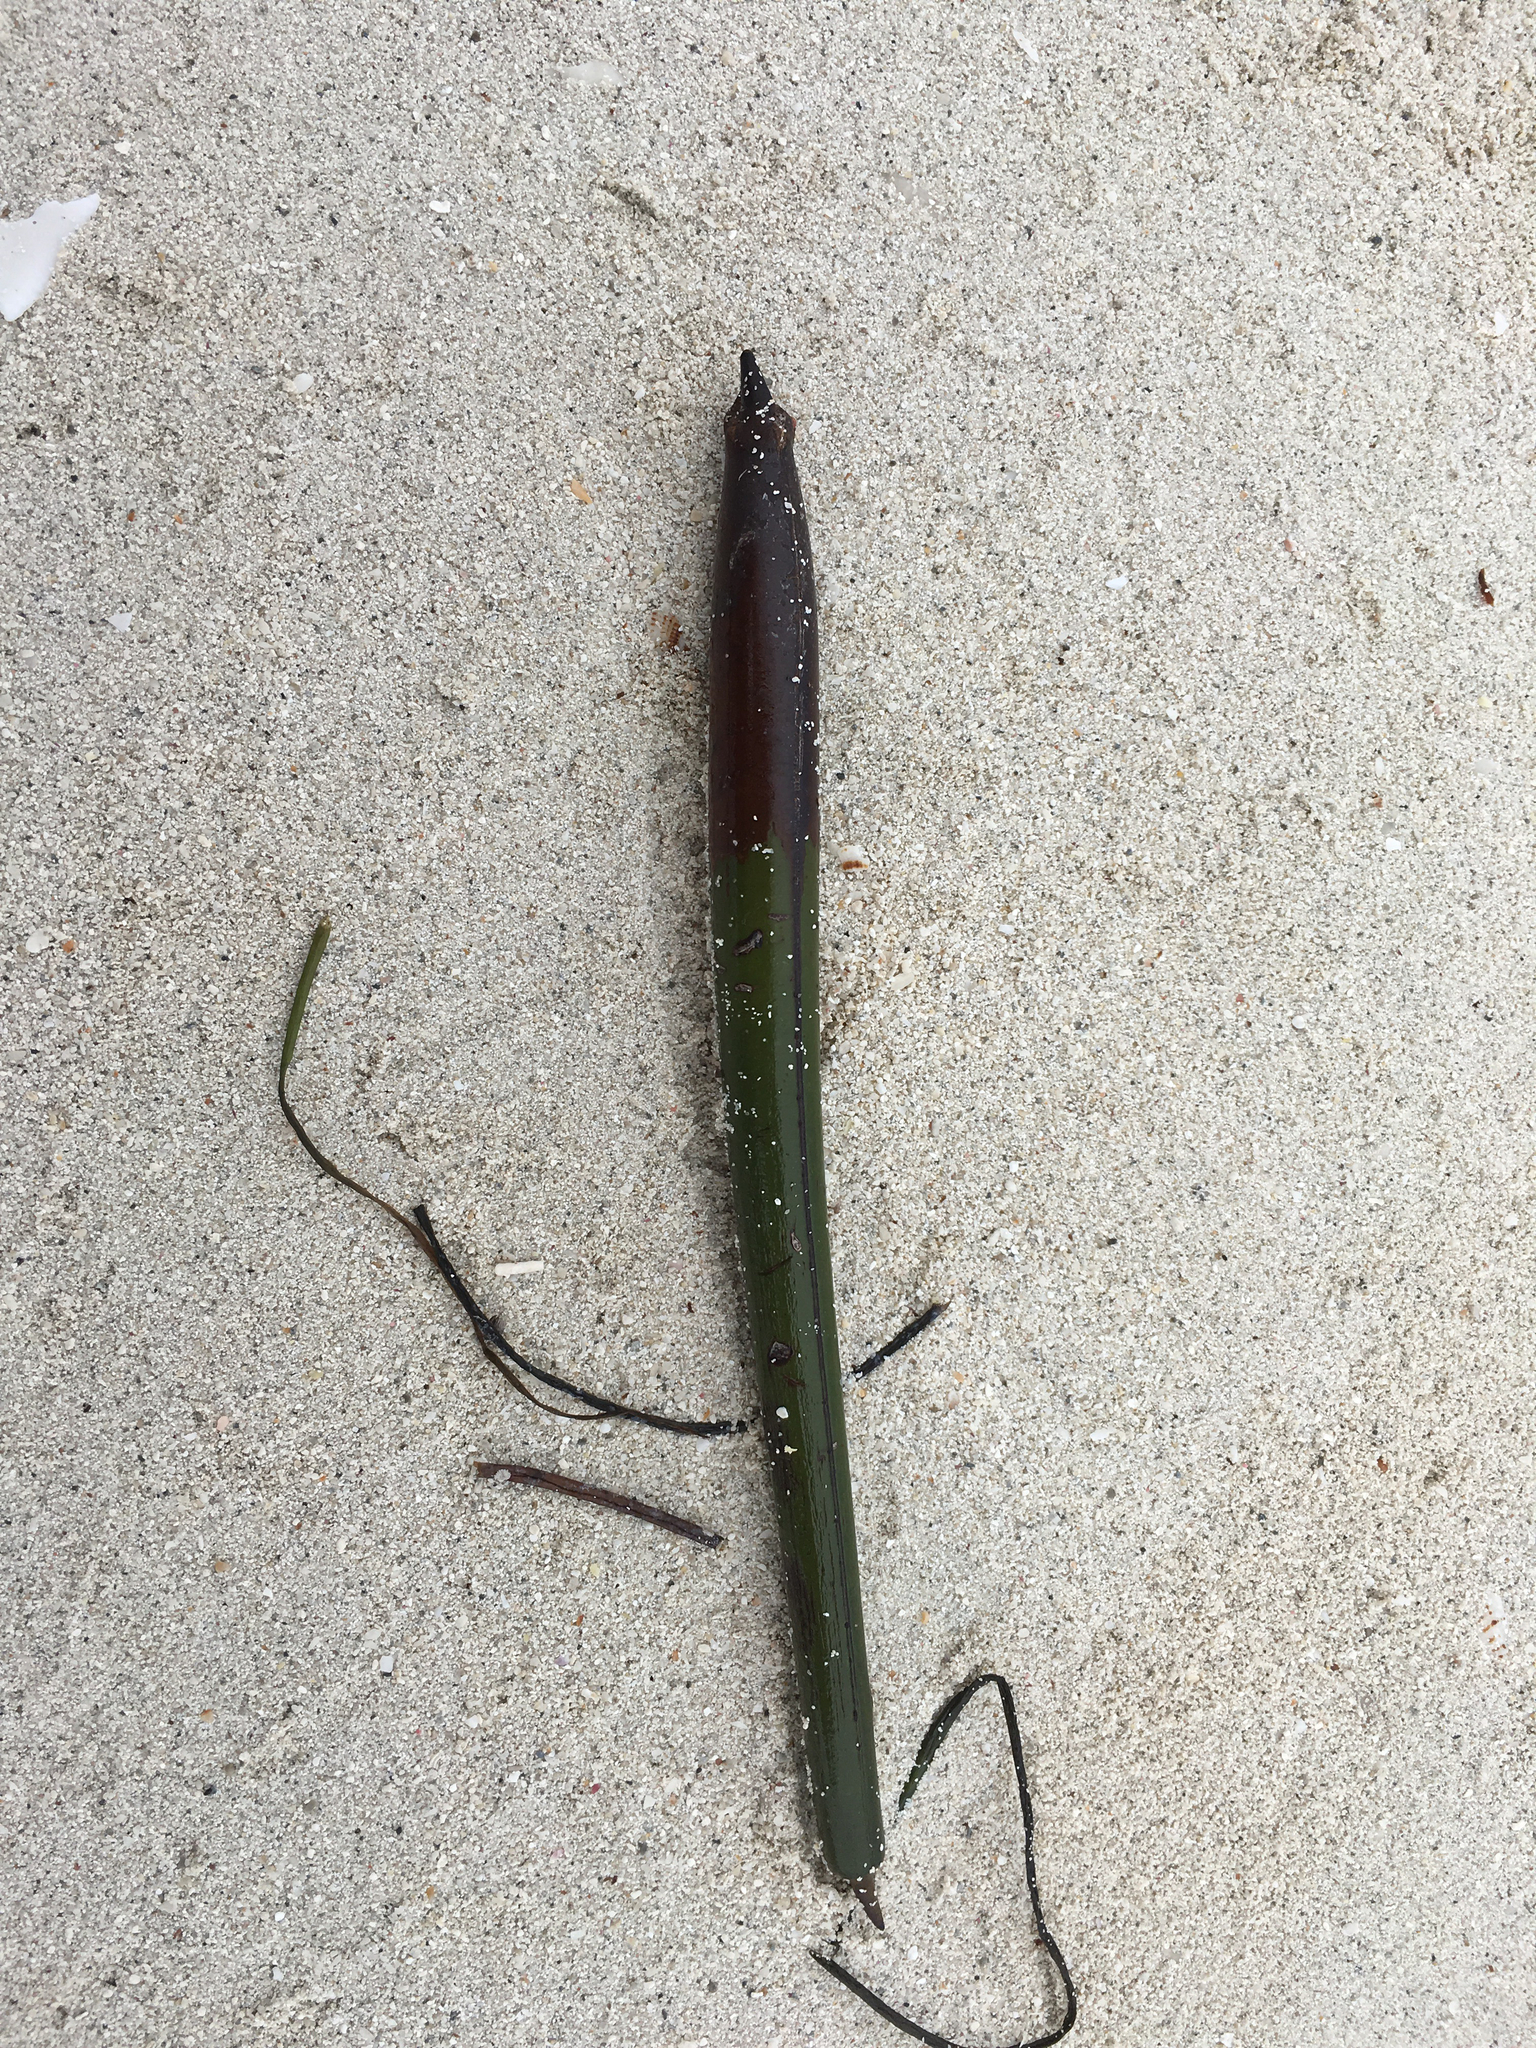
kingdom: Plantae
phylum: Tracheophyta
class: Magnoliopsida
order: Malpighiales
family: Rhizophoraceae
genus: Rhizophora
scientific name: Rhizophora mangle
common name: Red mangrove
